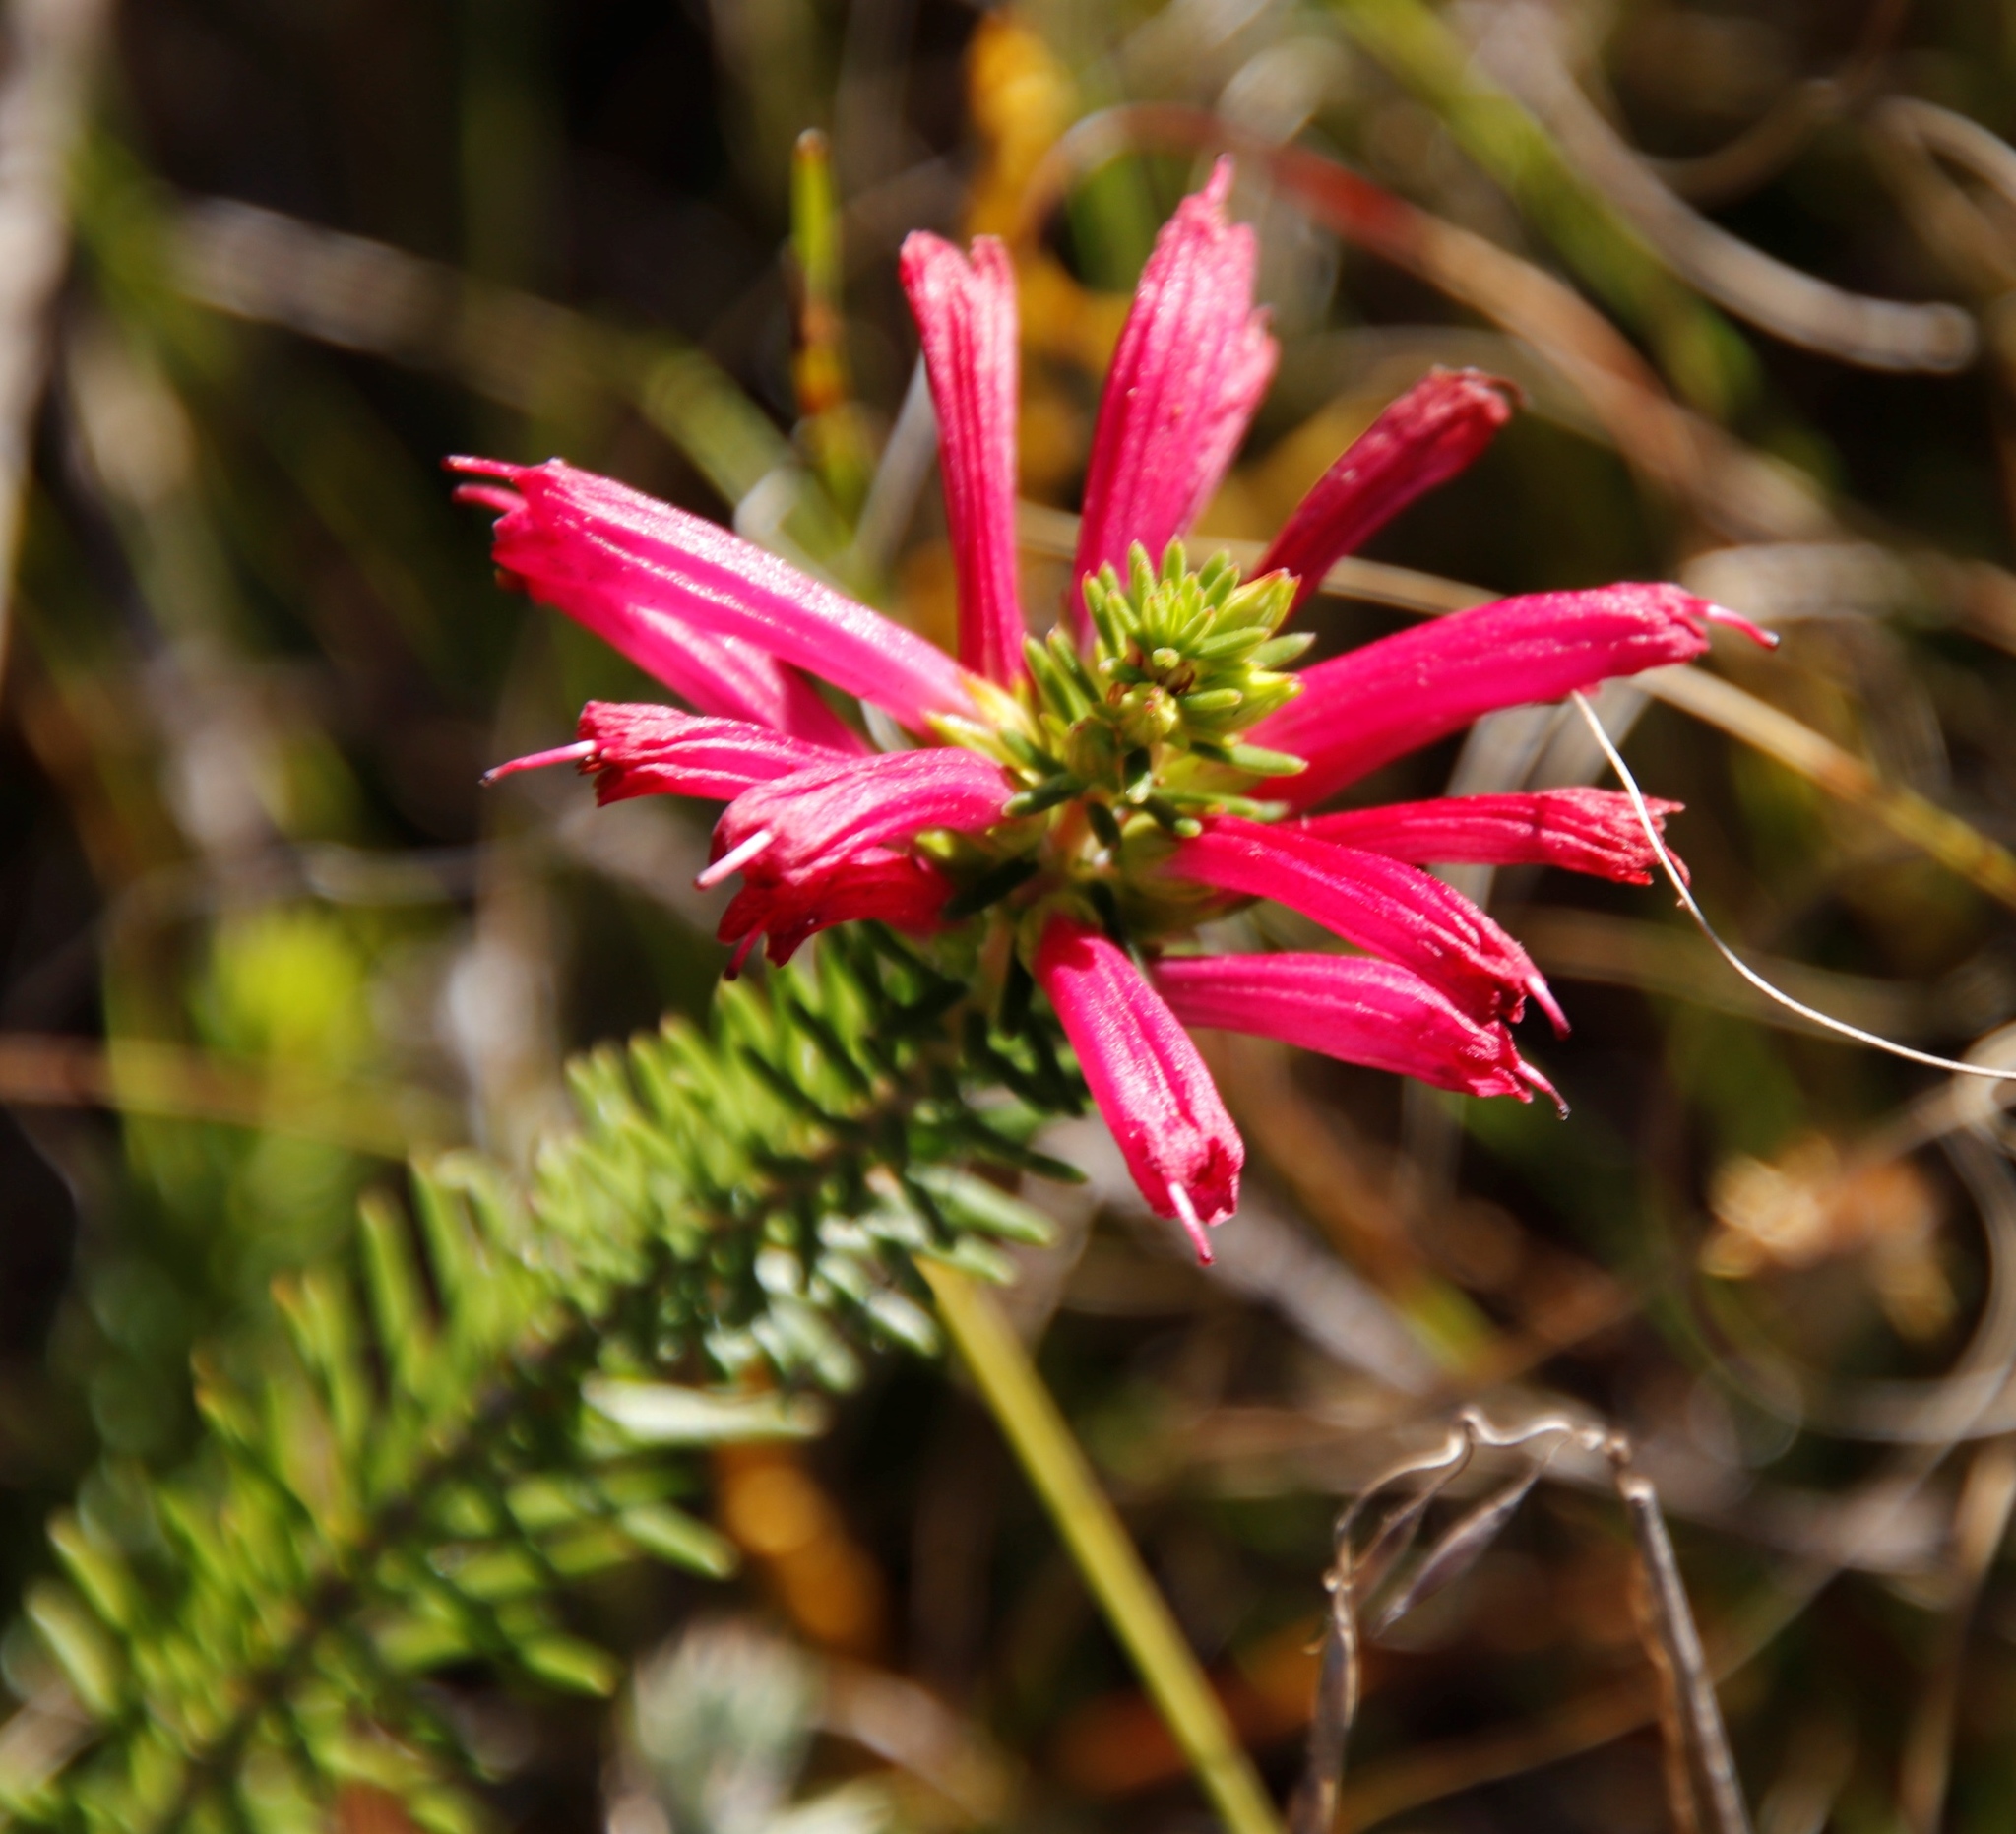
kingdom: Plantae
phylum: Tracheophyta
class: Magnoliopsida
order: Ericales
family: Ericaceae
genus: Erica
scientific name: Erica abietina
